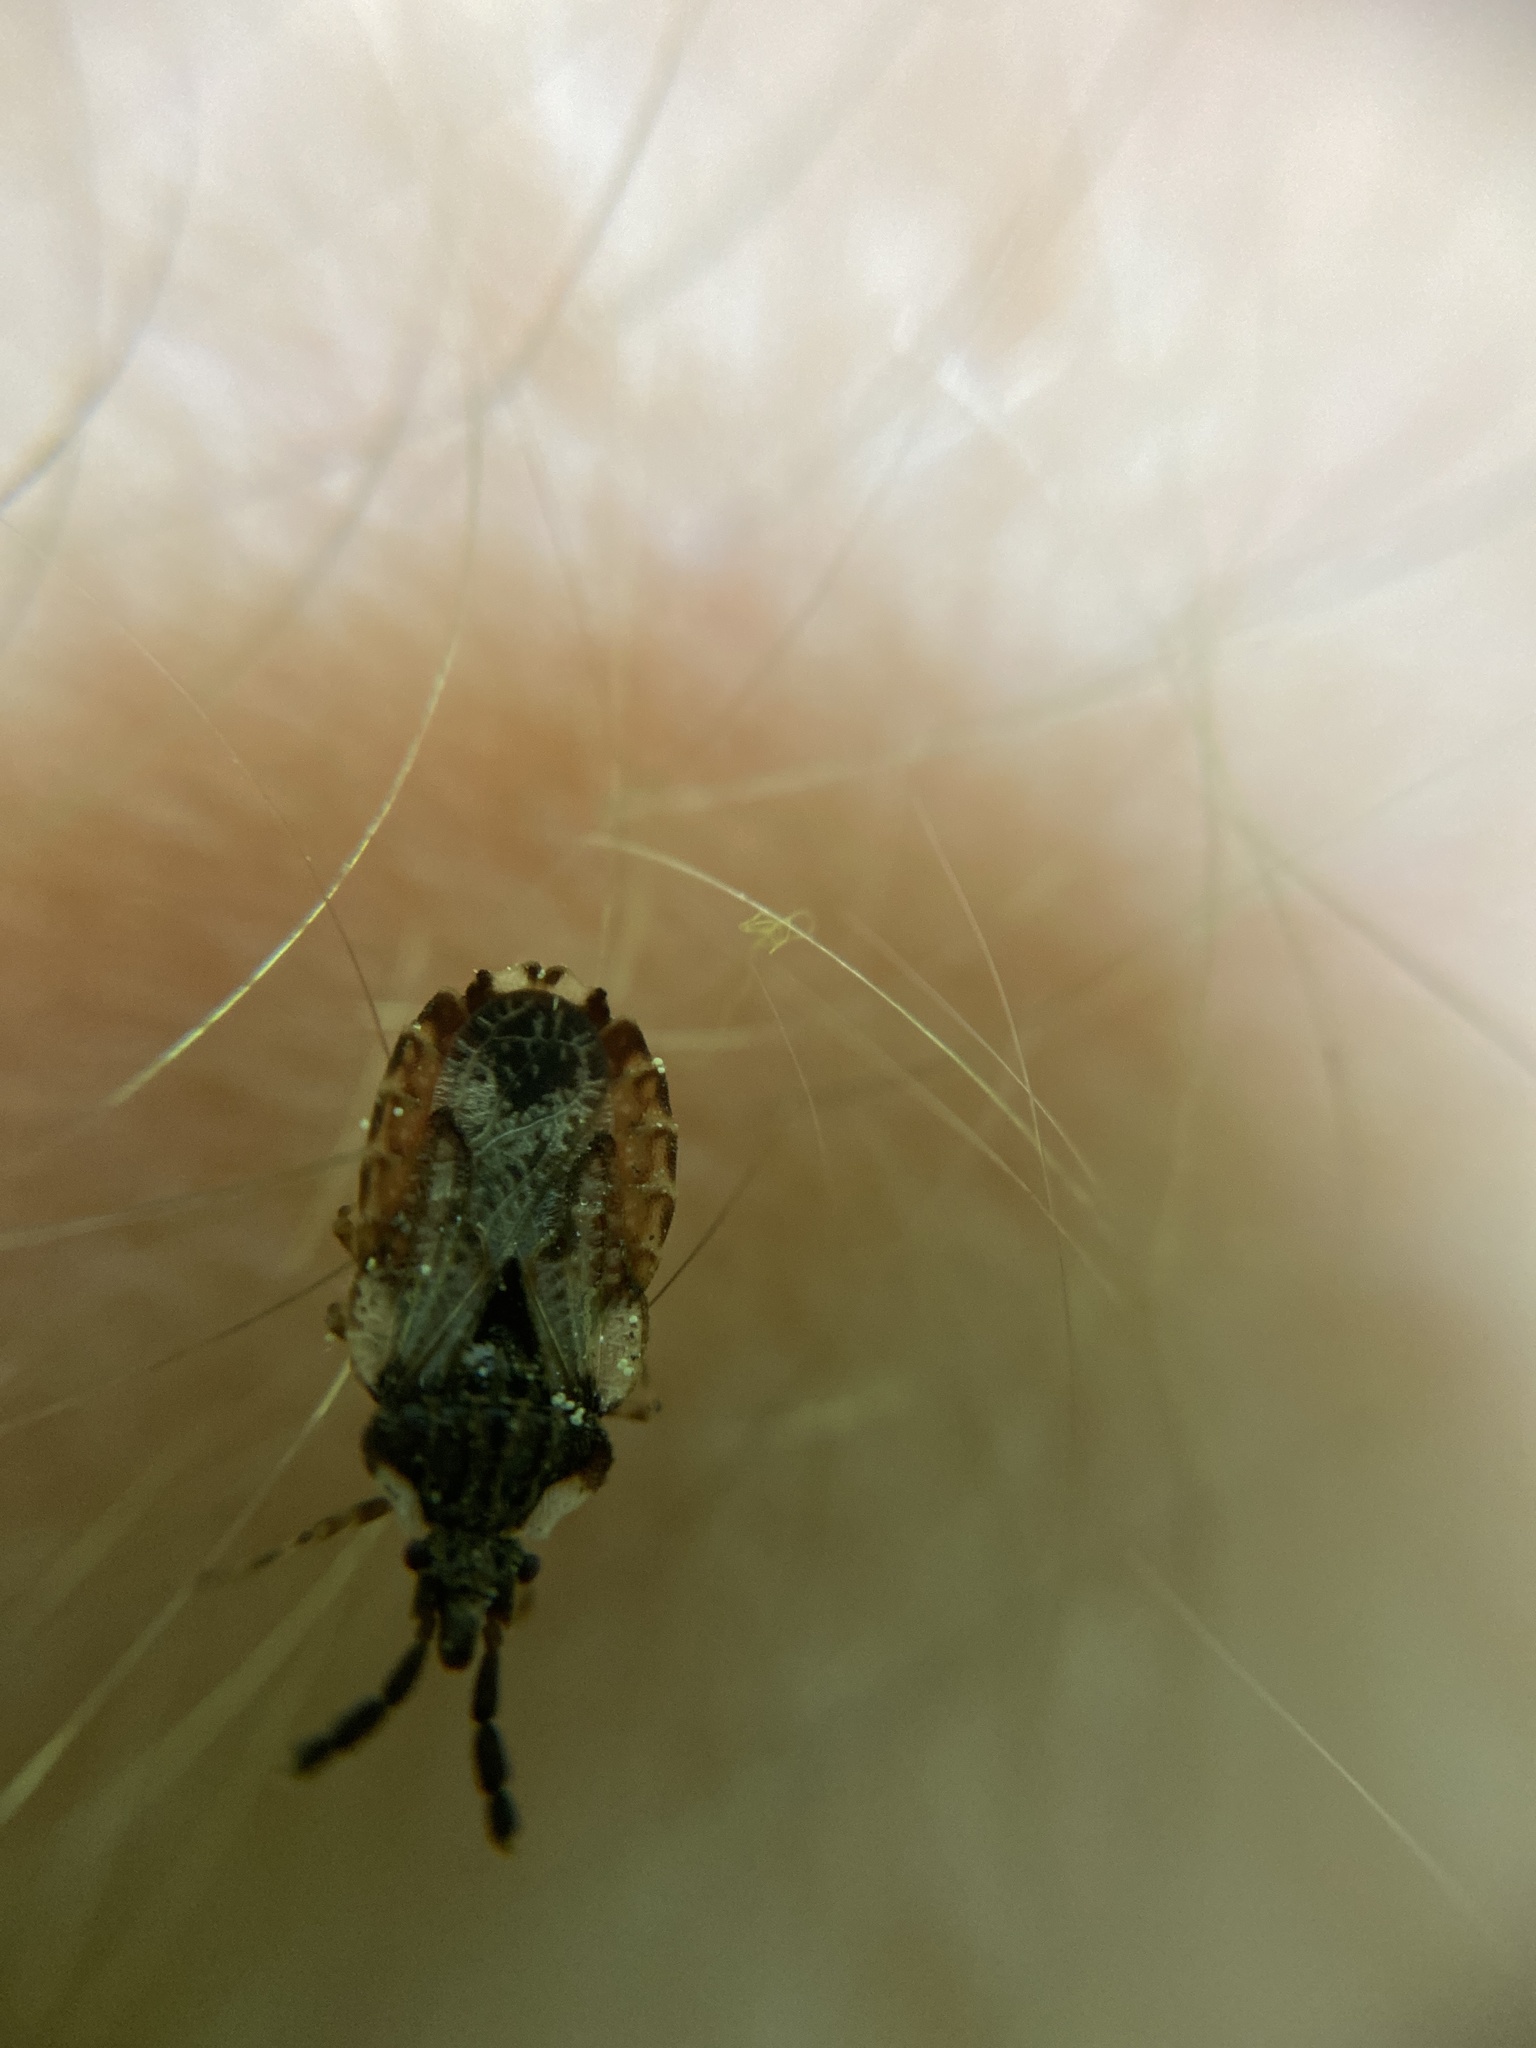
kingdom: Animalia
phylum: Arthropoda
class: Insecta
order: Hemiptera
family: Aradidae
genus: Aradus
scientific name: Aradus depressus
